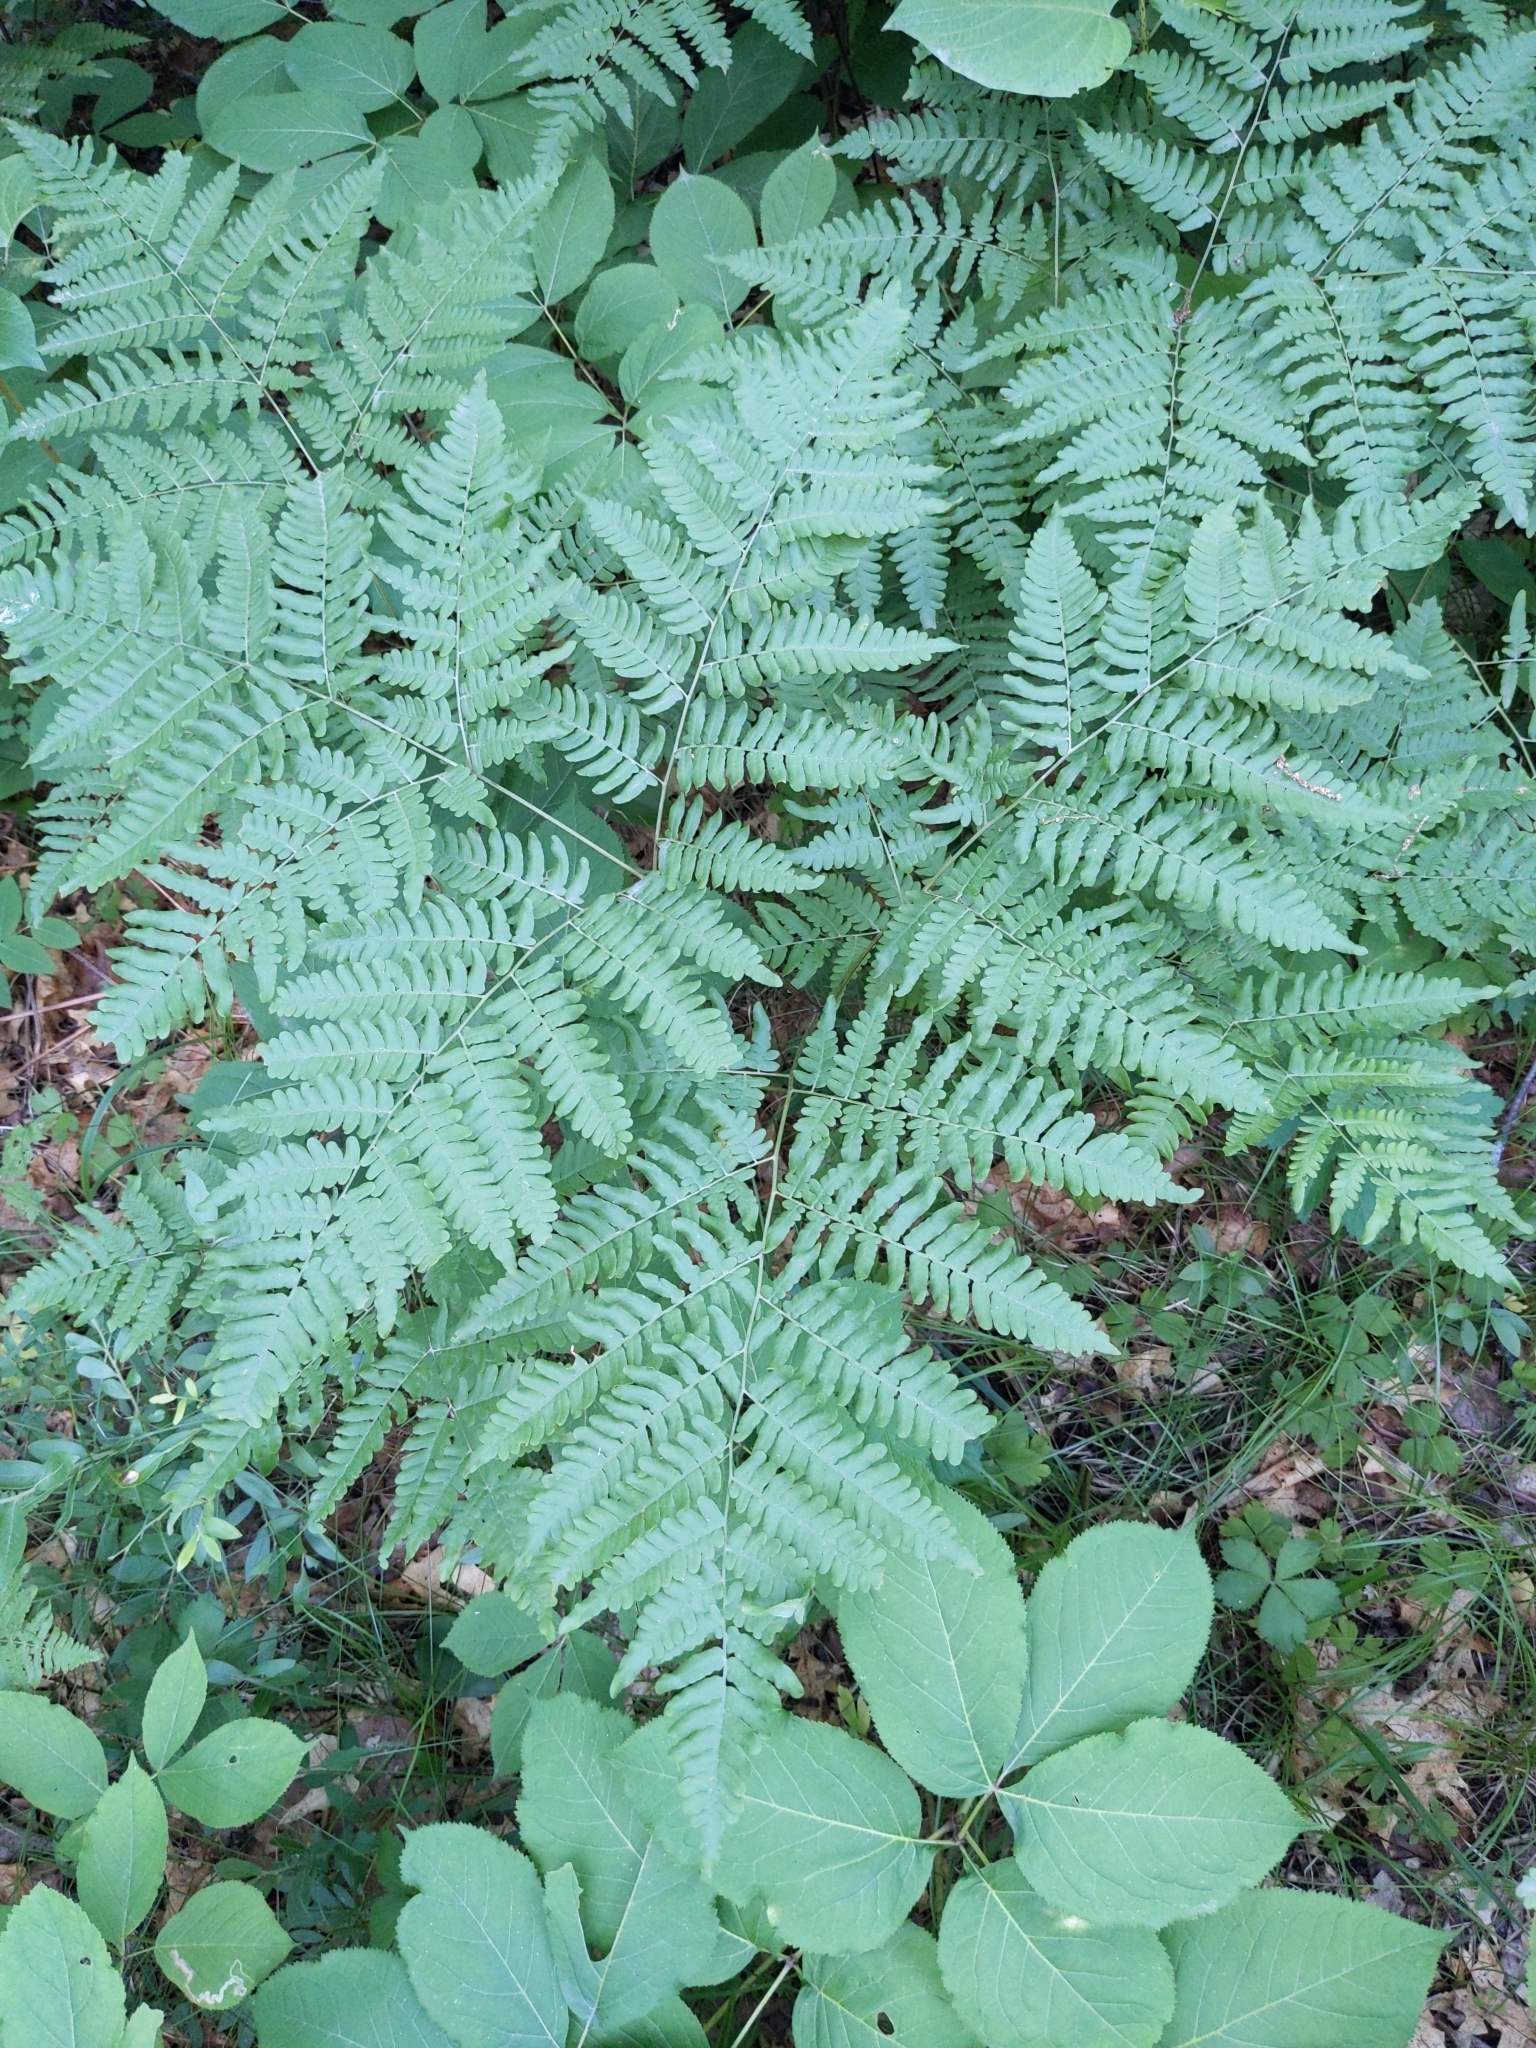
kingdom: Plantae
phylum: Tracheophyta
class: Polypodiopsida
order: Polypodiales
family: Dennstaedtiaceae
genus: Pteridium
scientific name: Pteridium aquilinum
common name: Bracken
